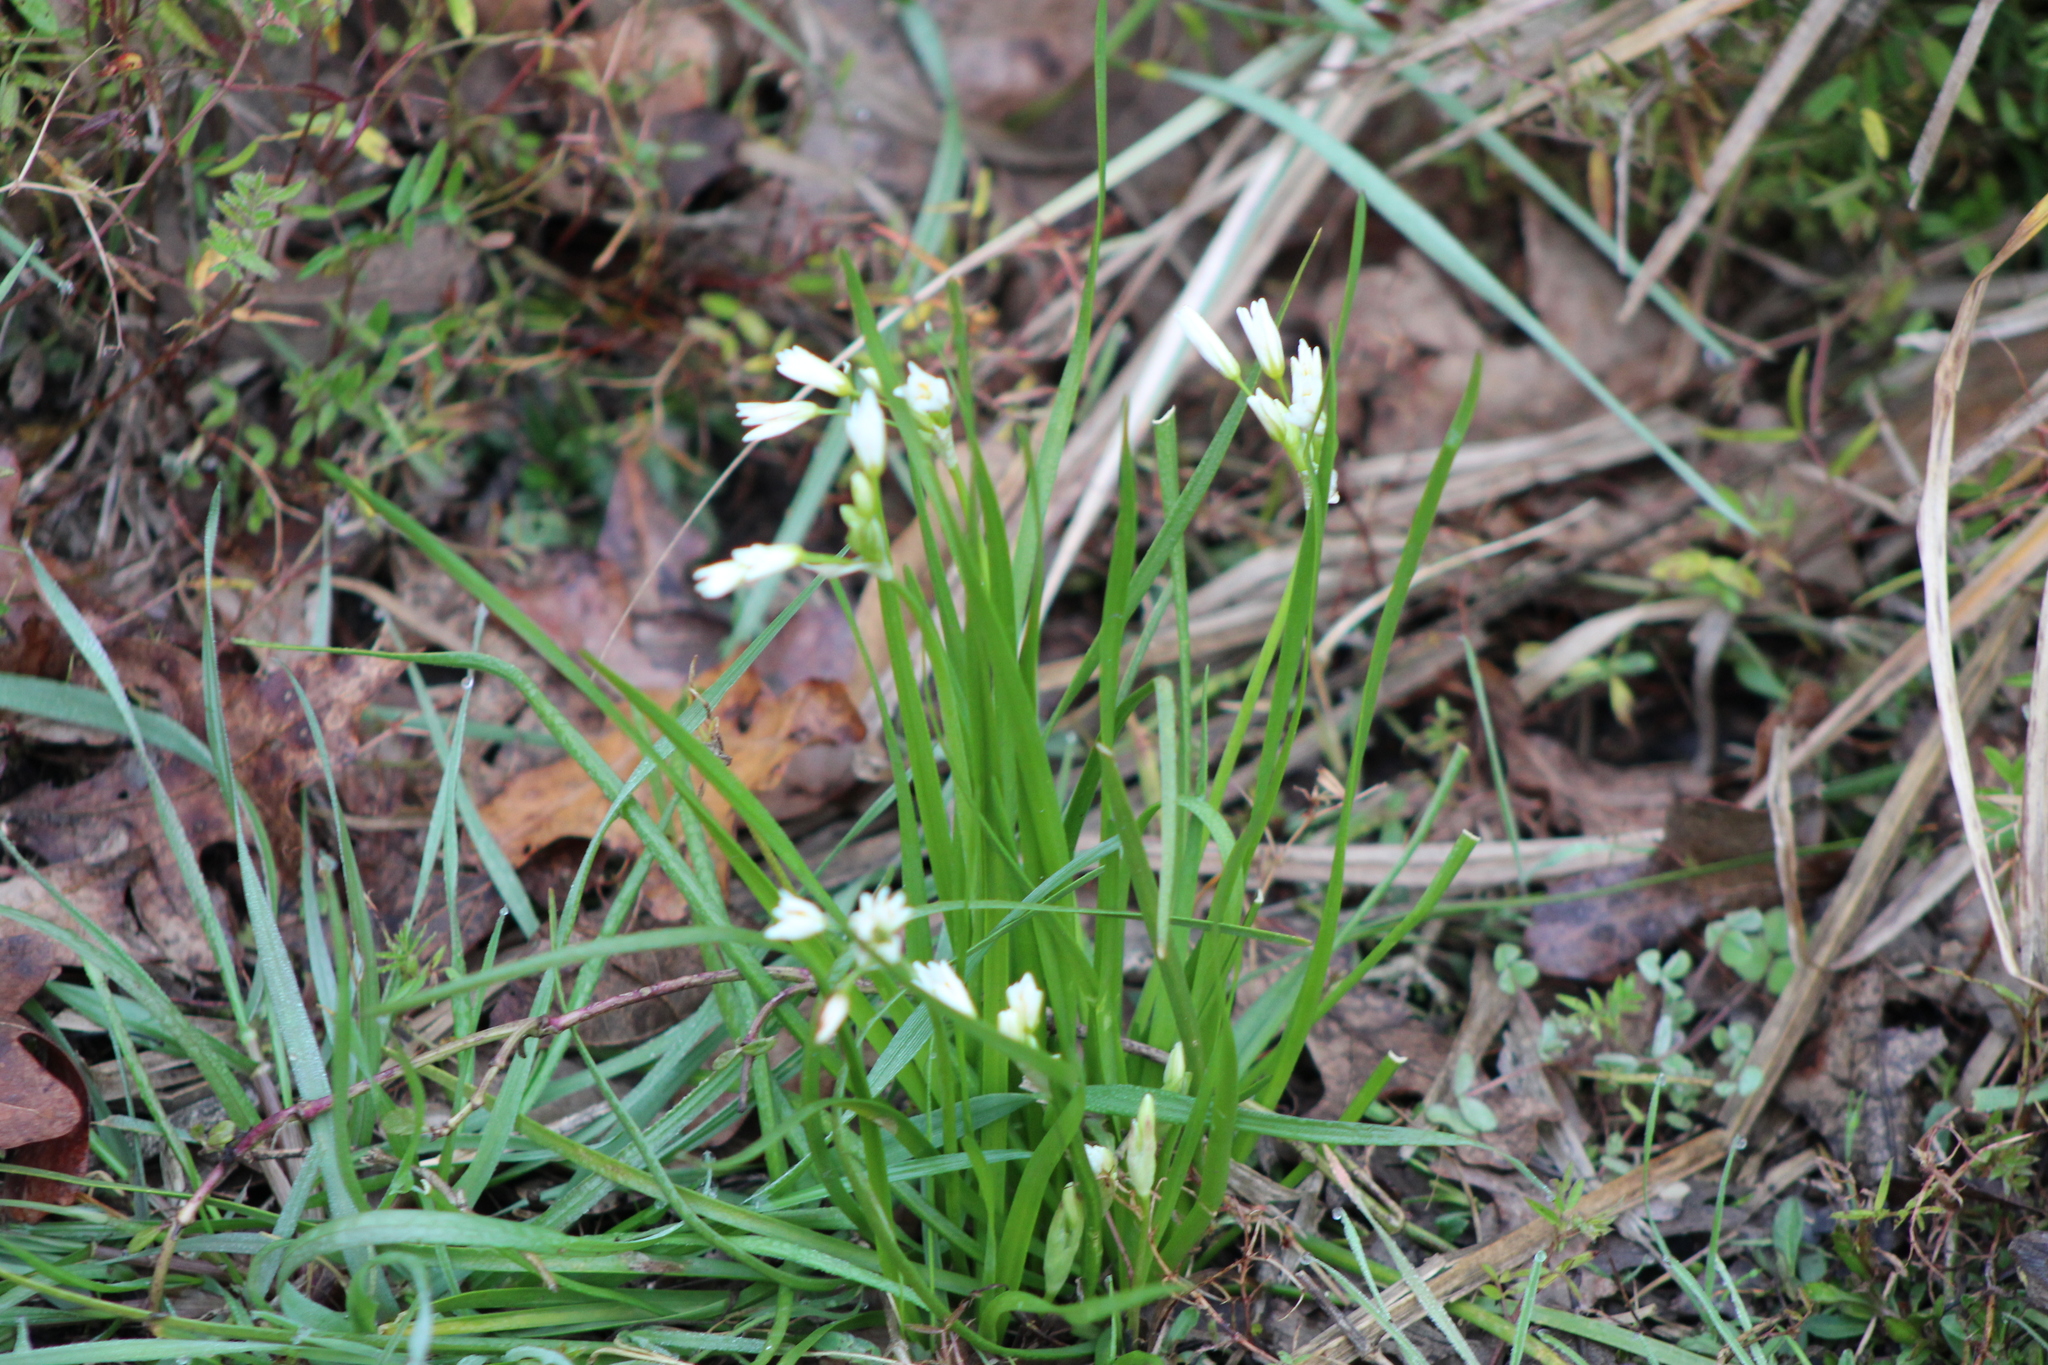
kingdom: Plantae
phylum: Tracheophyta
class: Liliopsida
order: Asparagales
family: Amaryllidaceae
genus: Nothoscordum
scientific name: Nothoscordum bivalve
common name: Crow-poison
